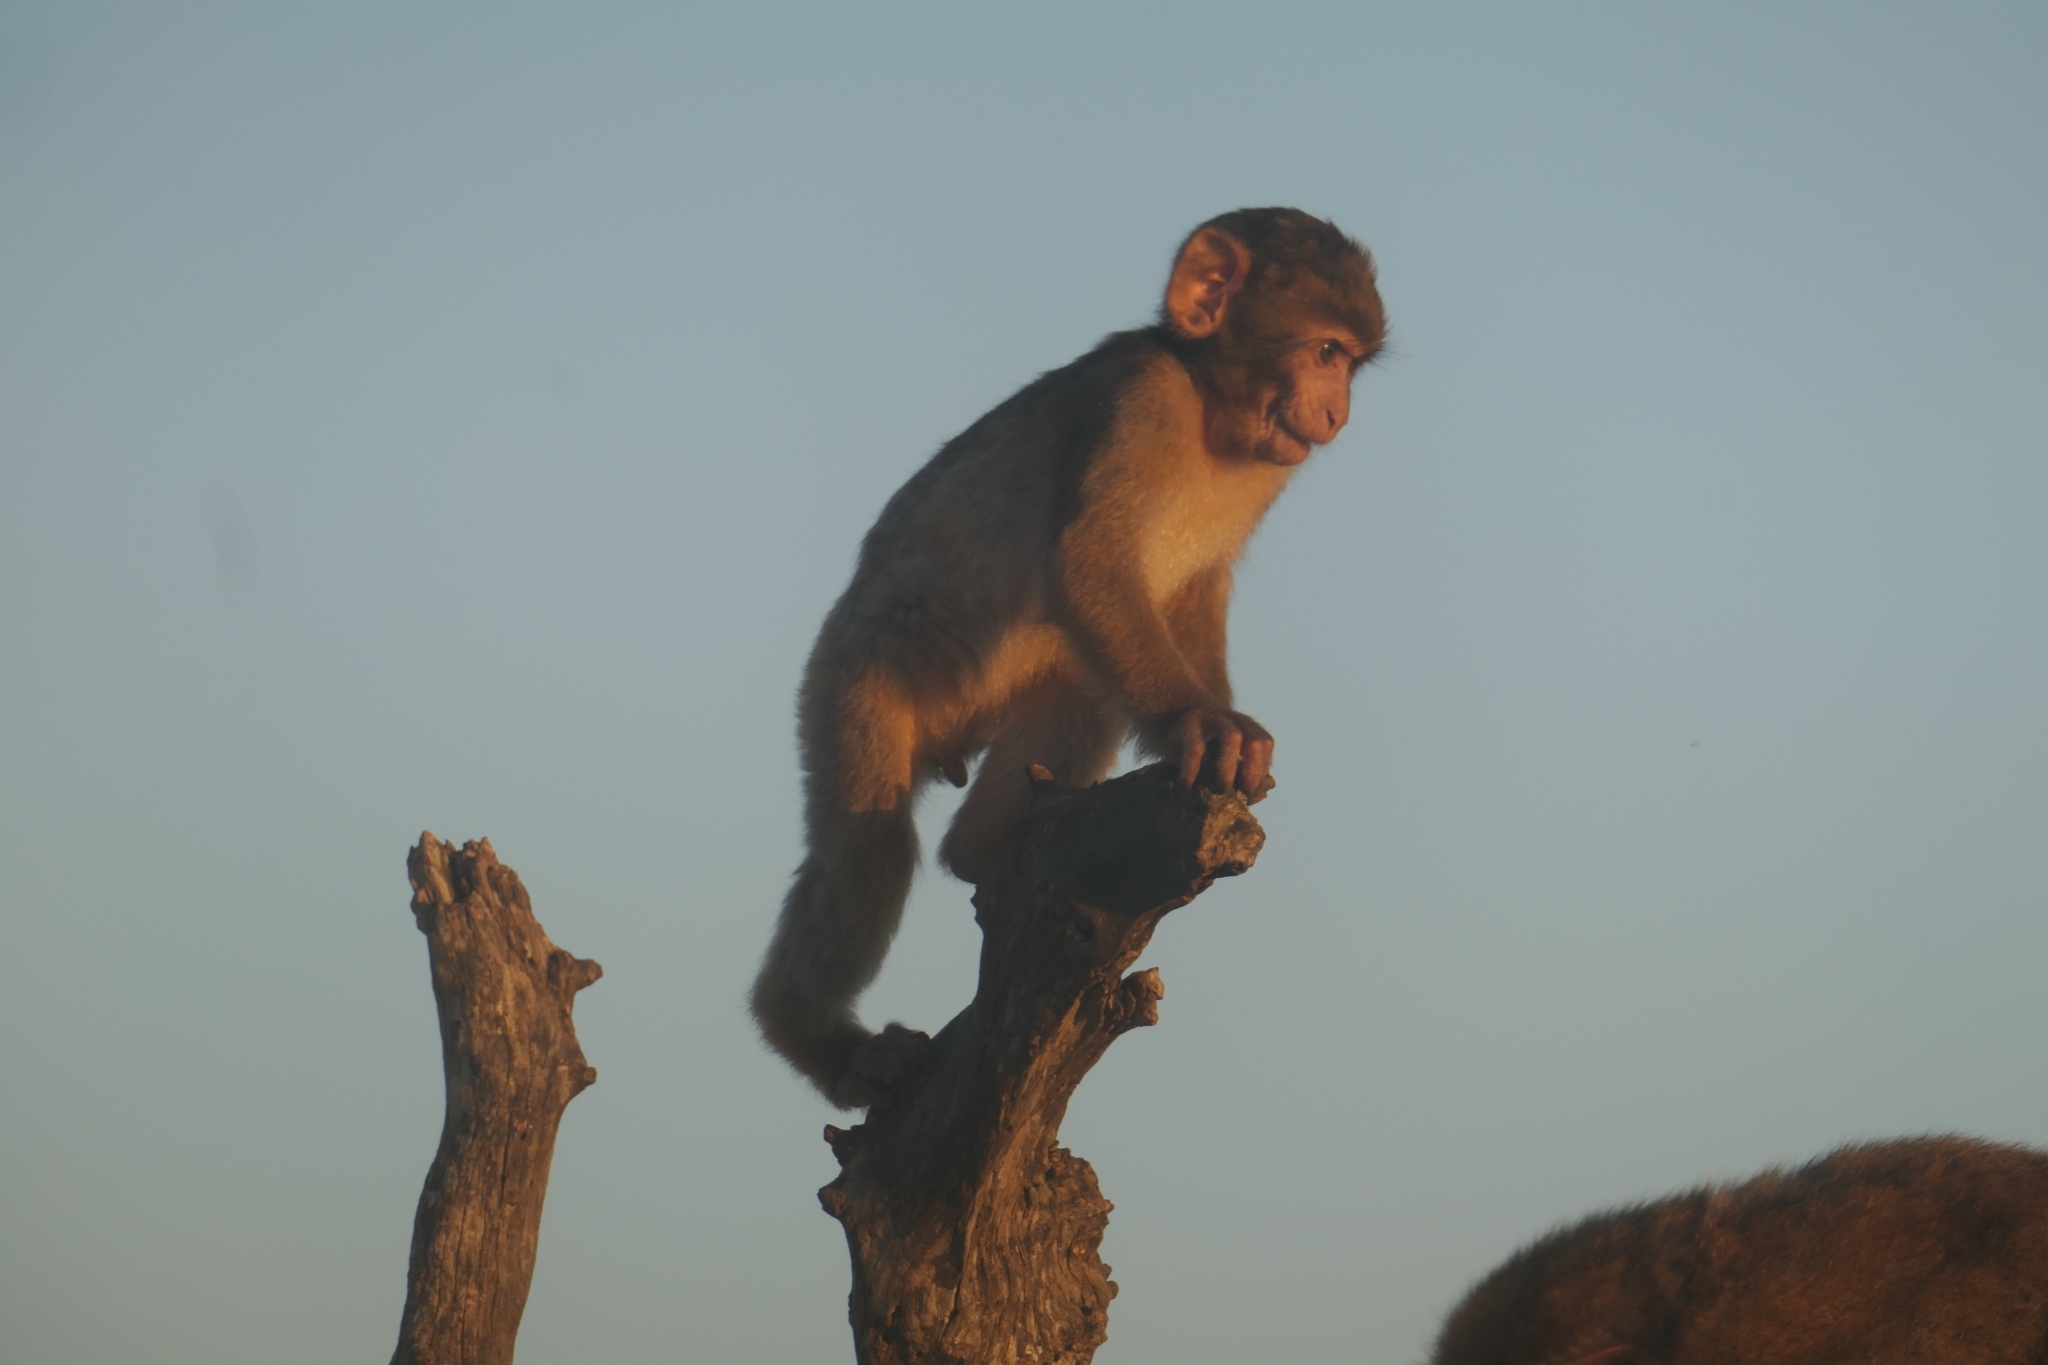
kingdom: Animalia
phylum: Chordata
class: Mammalia
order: Primates
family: Cercopithecidae
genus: Macaca
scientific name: Macaca sylvanus
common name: Barbary macaque
